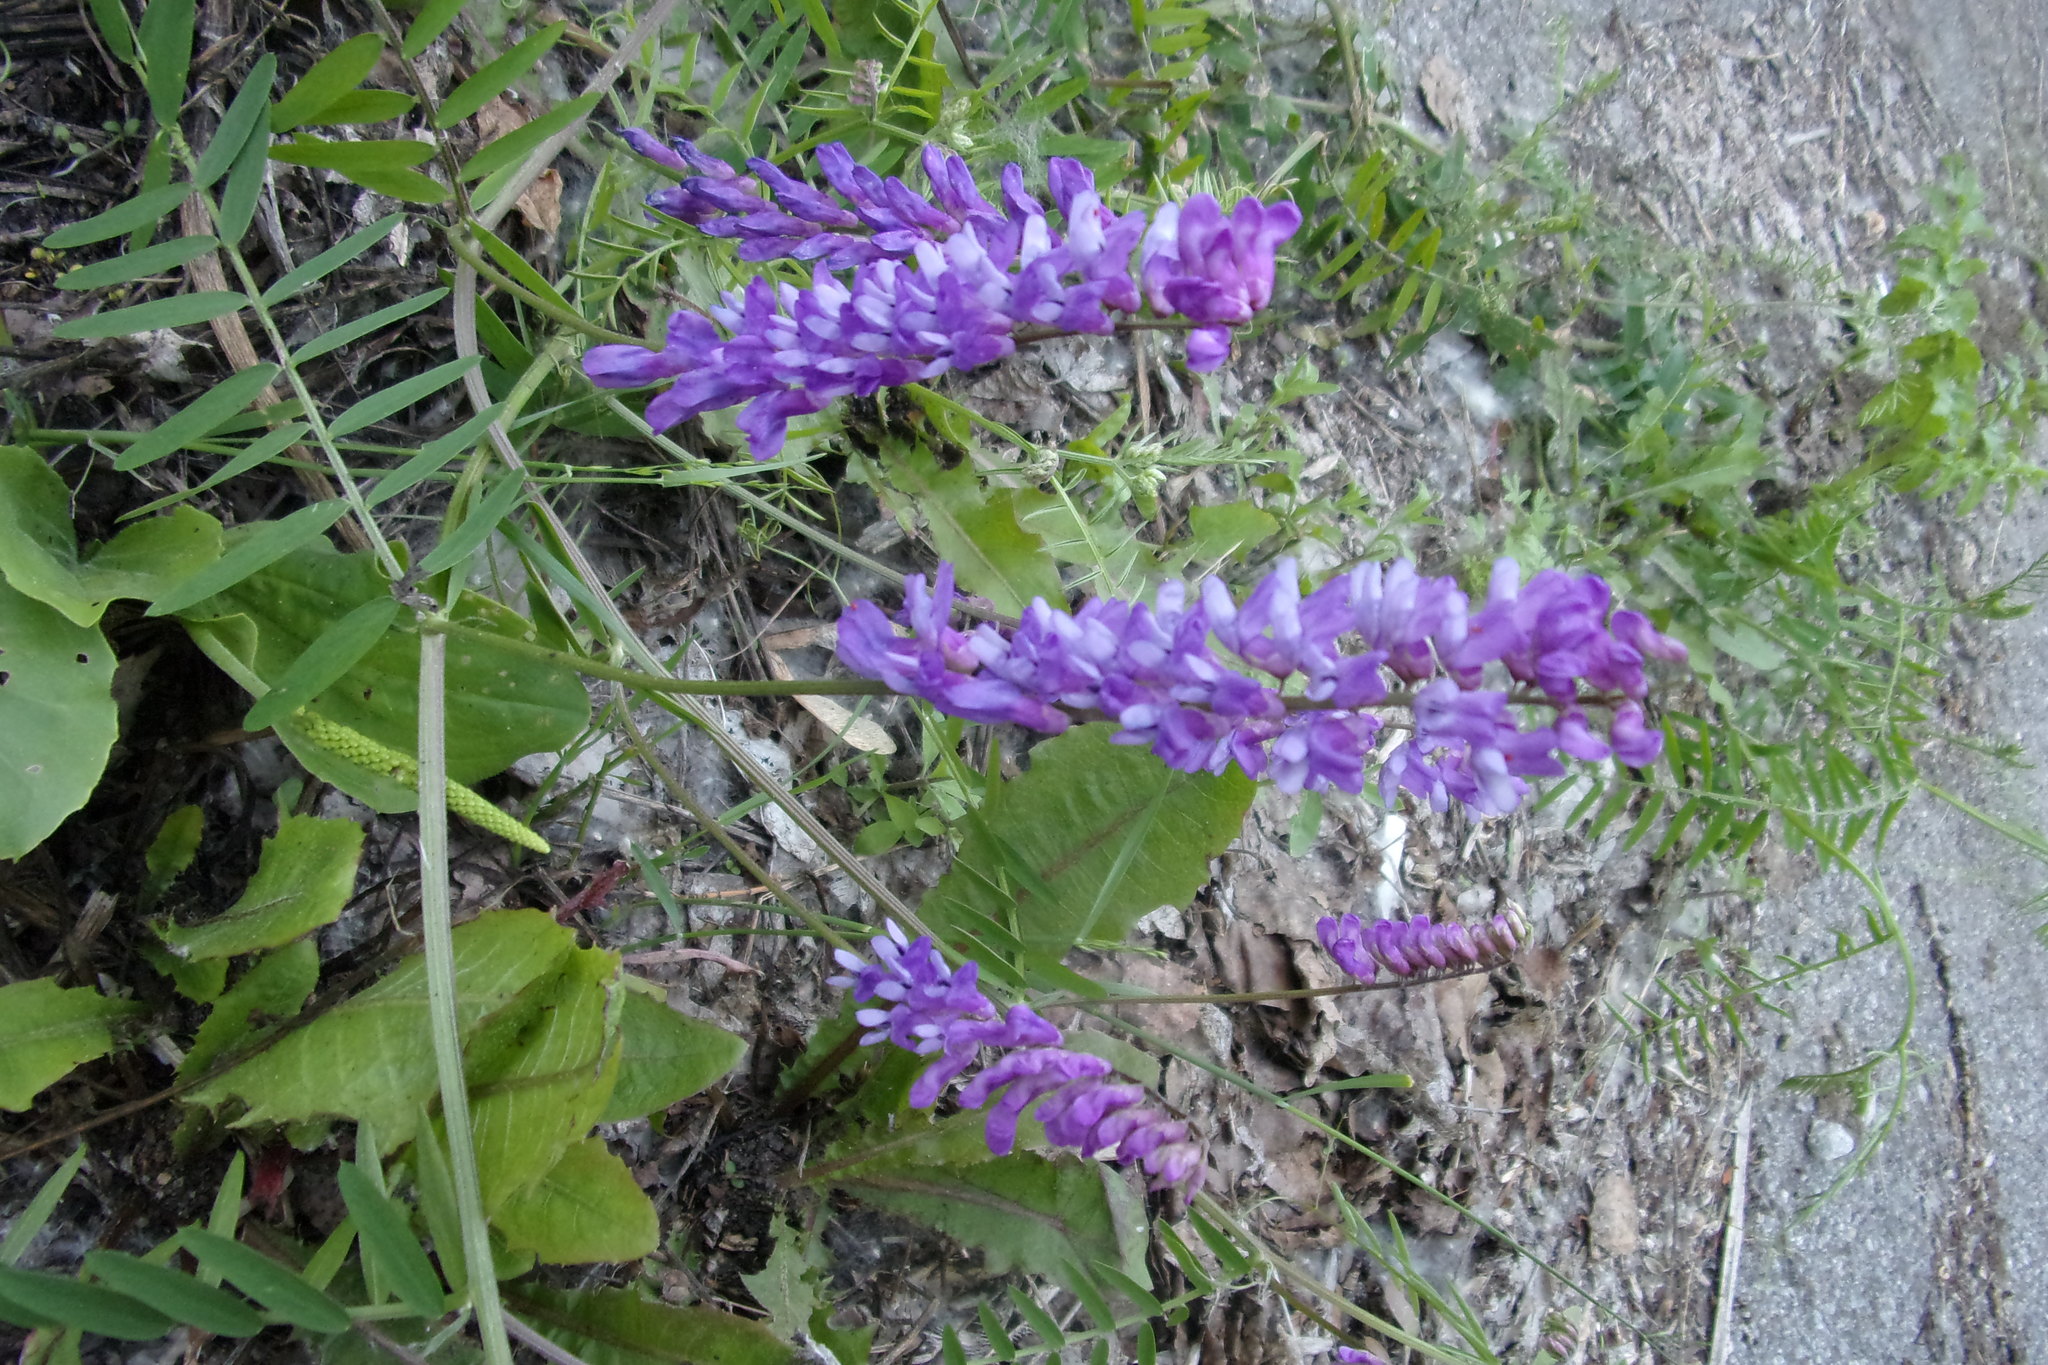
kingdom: Plantae
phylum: Tracheophyta
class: Magnoliopsida
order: Fabales
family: Fabaceae
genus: Vicia
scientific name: Vicia cracca
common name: Bird vetch
